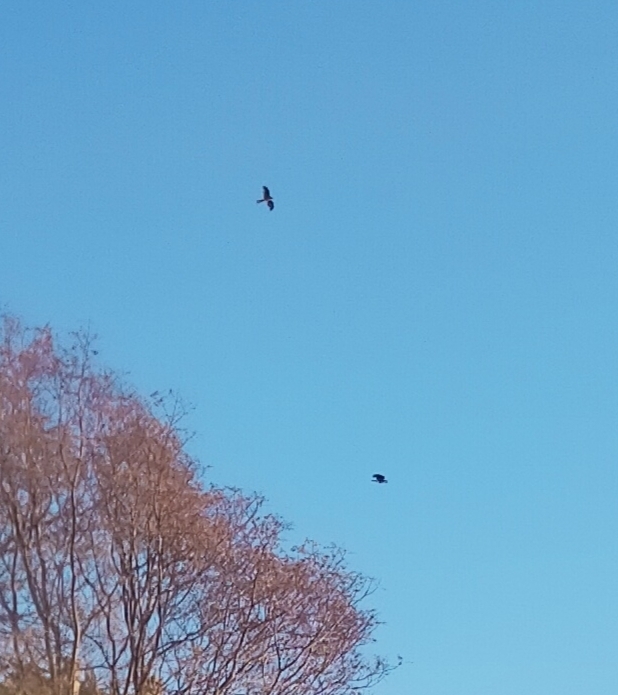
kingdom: Animalia
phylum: Chordata
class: Aves
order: Accipitriformes
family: Accipitridae
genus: Accipiter
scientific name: Accipiter nisus
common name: Eurasian sparrowhawk
